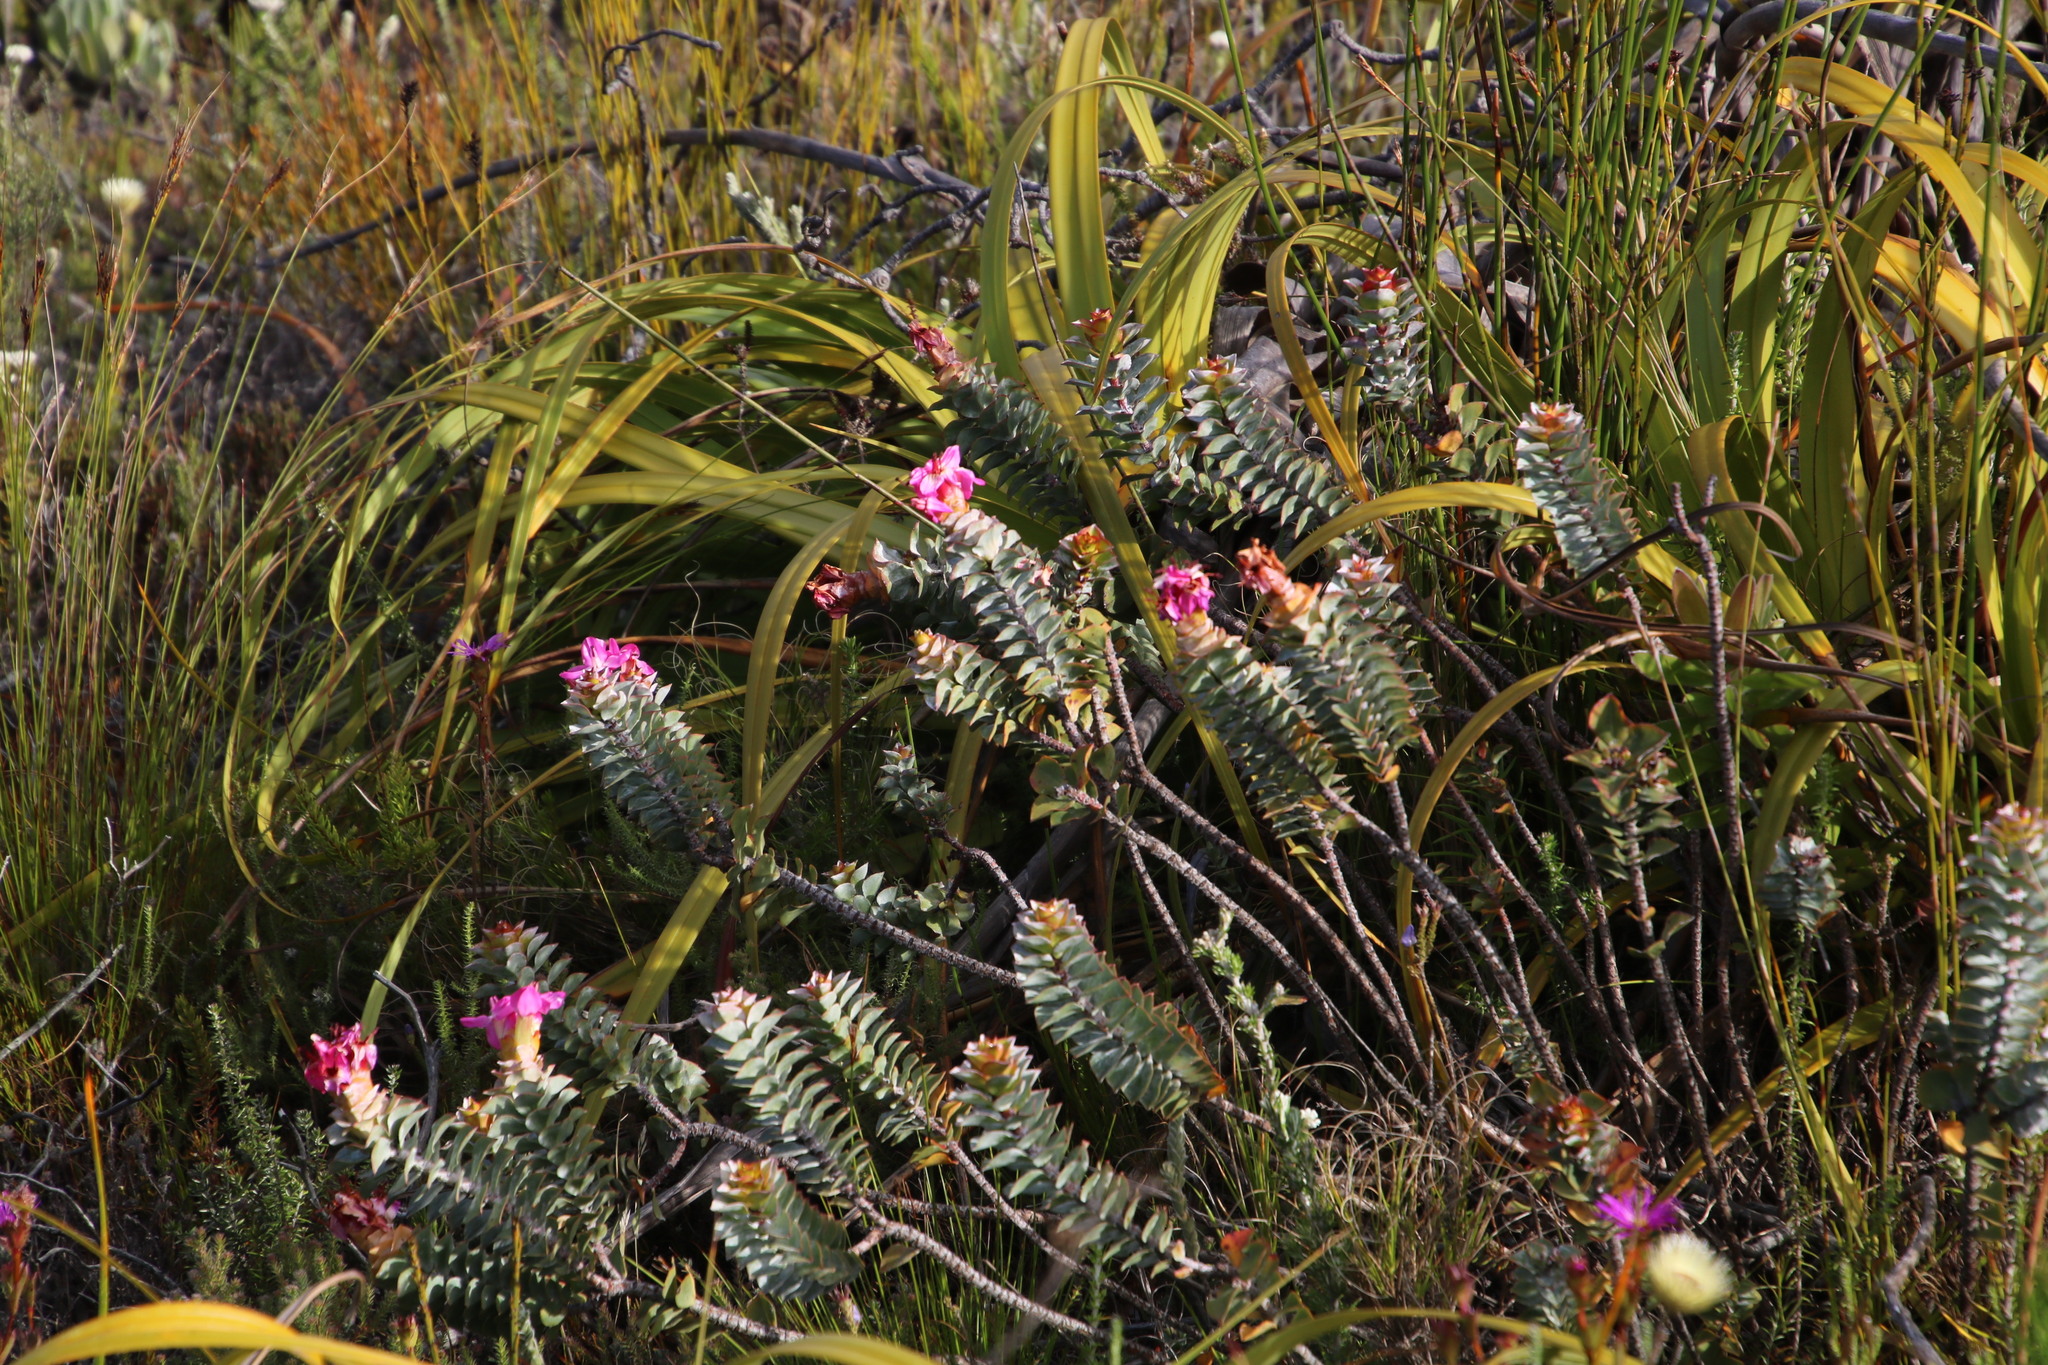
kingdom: Plantae
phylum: Tracheophyta
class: Magnoliopsida
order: Myrtales
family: Penaeaceae
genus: Saltera
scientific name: Saltera sarcocolla
